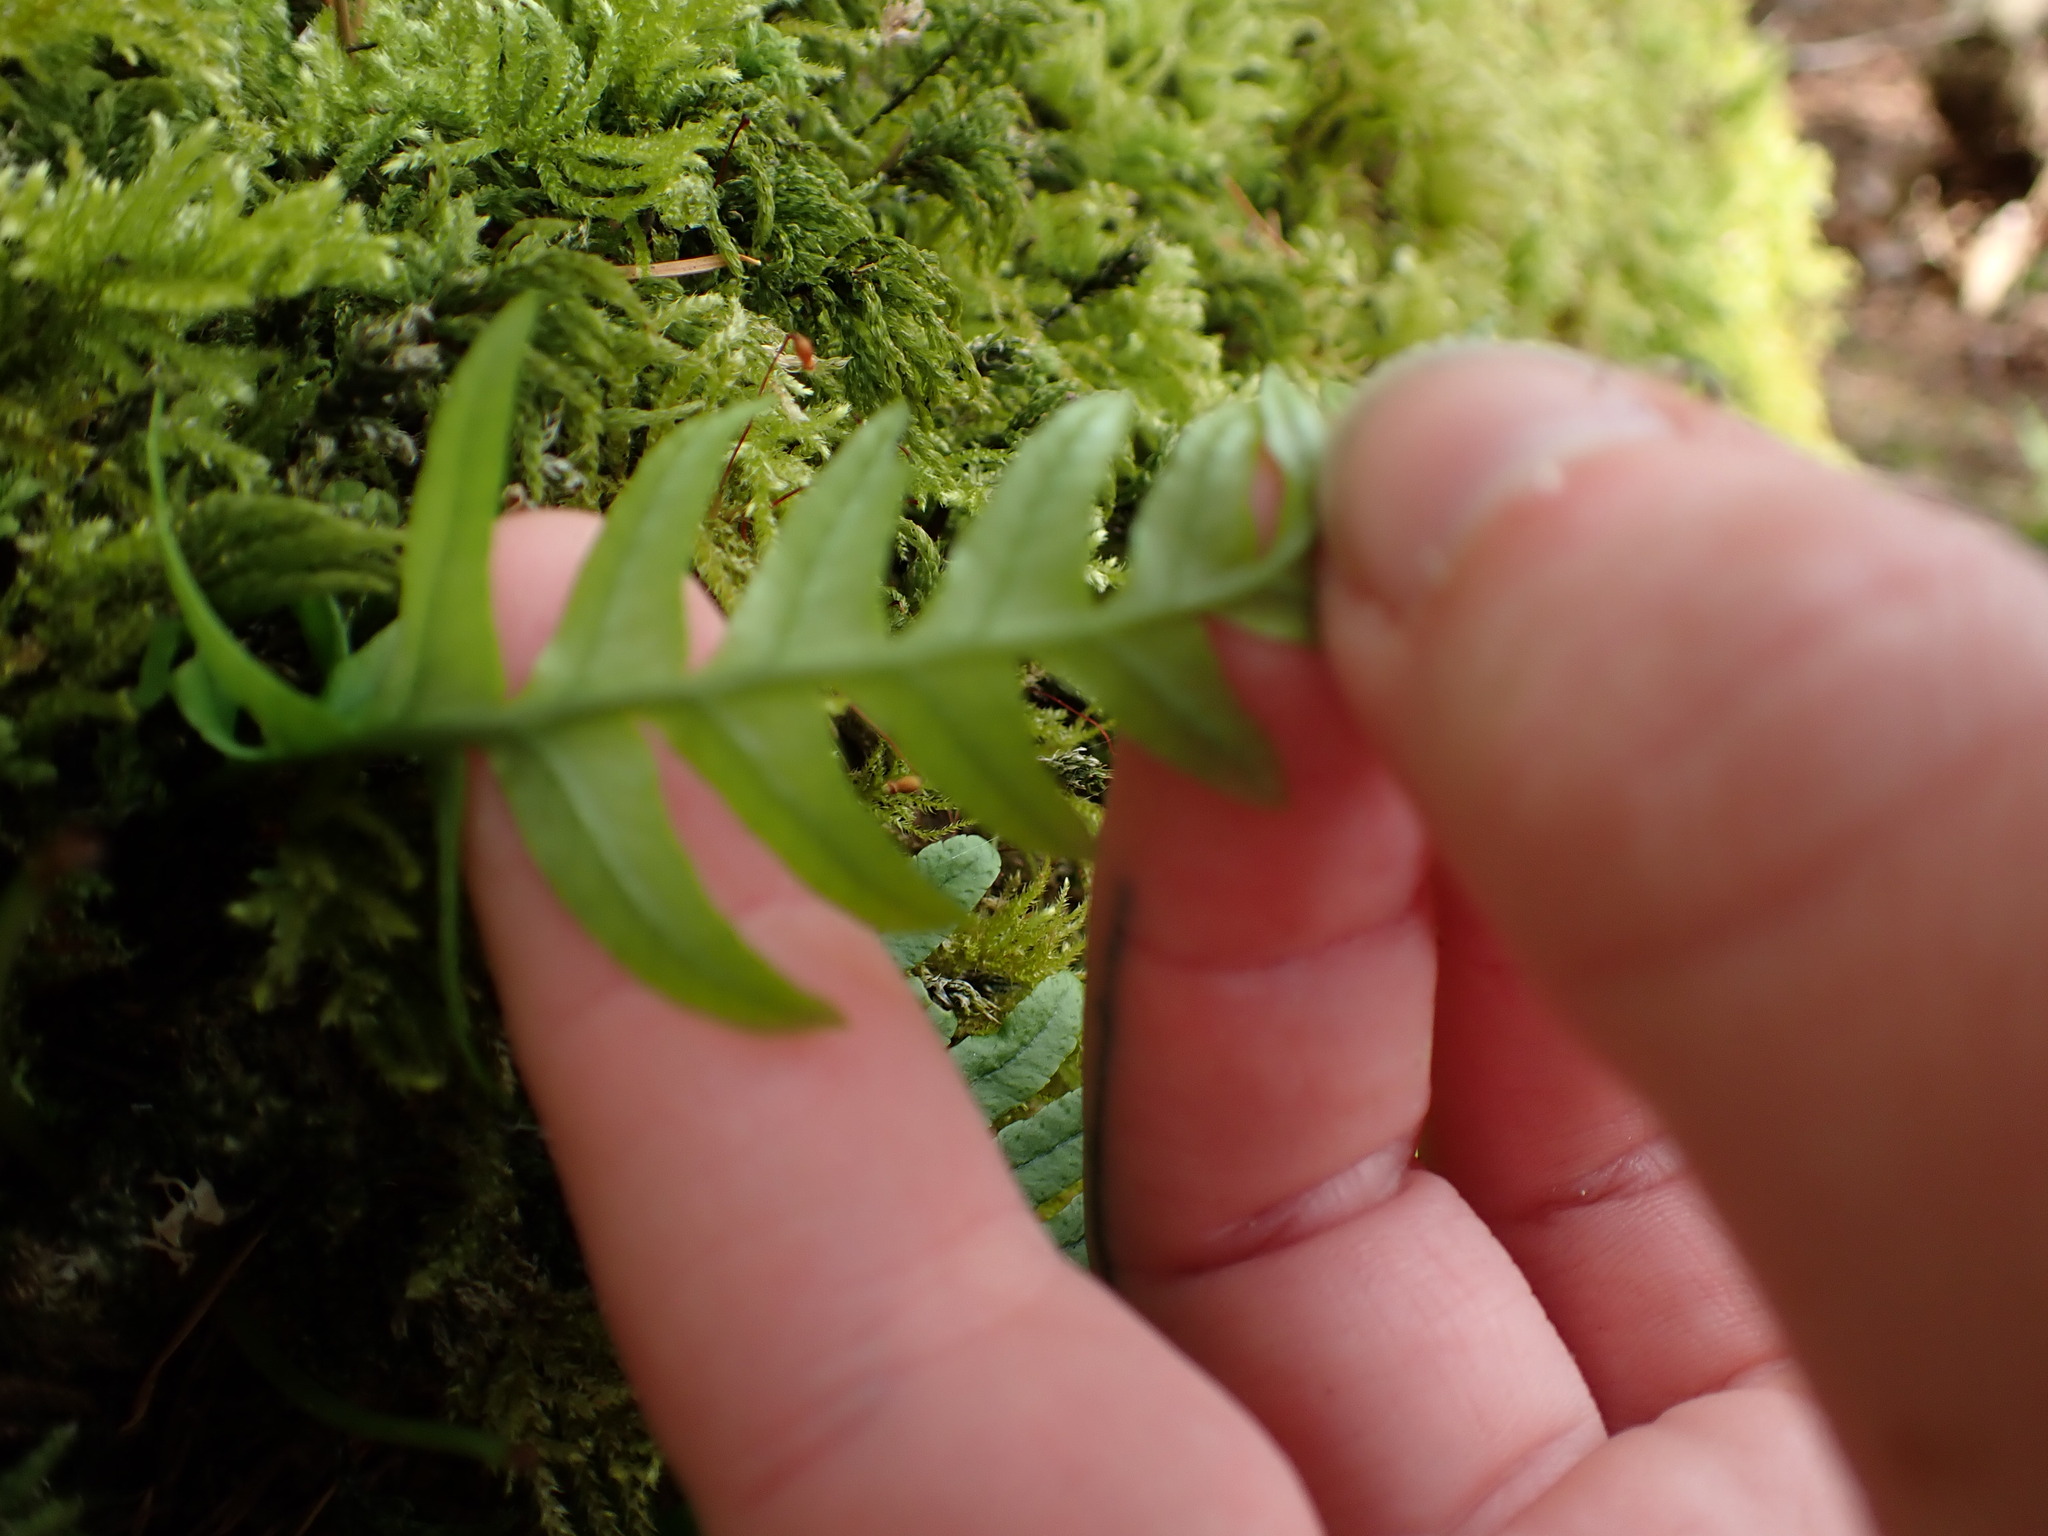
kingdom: Plantae
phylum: Tracheophyta
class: Polypodiopsida
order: Polypodiales
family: Polypodiaceae
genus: Polypodium
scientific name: Polypodium glycyrrhiza
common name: Licorice fern
